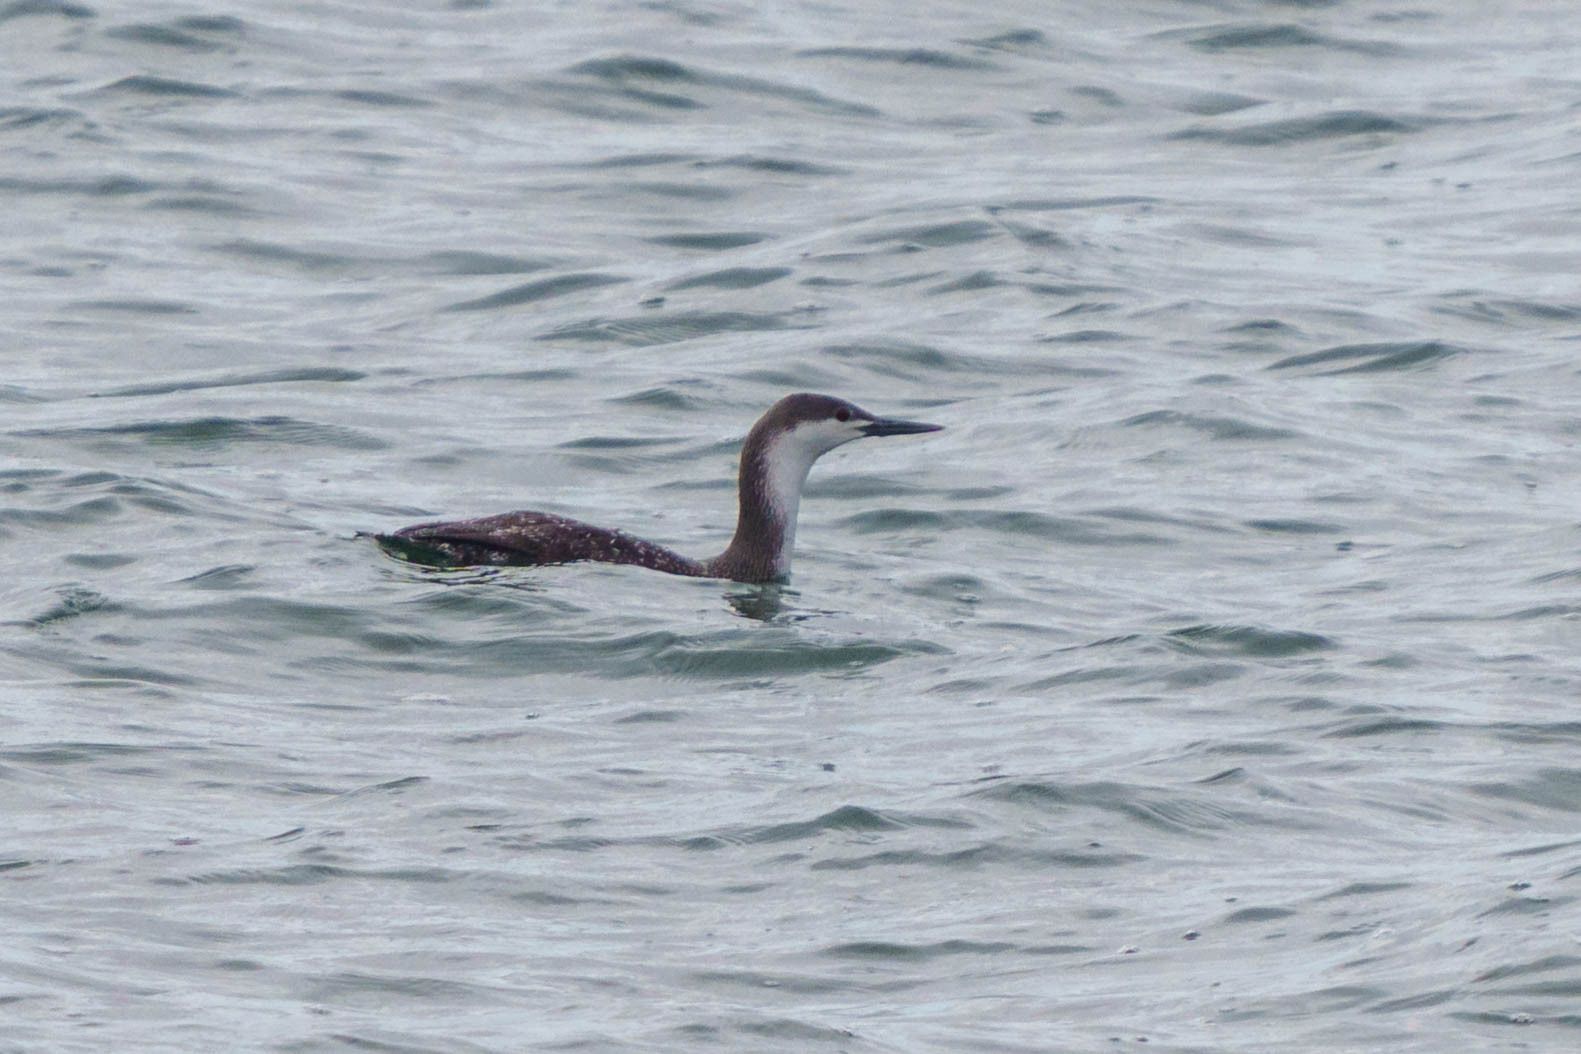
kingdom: Animalia
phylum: Chordata
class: Aves
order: Gaviiformes
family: Gaviidae
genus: Gavia
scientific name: Gavia stellata
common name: Red-throated loon
